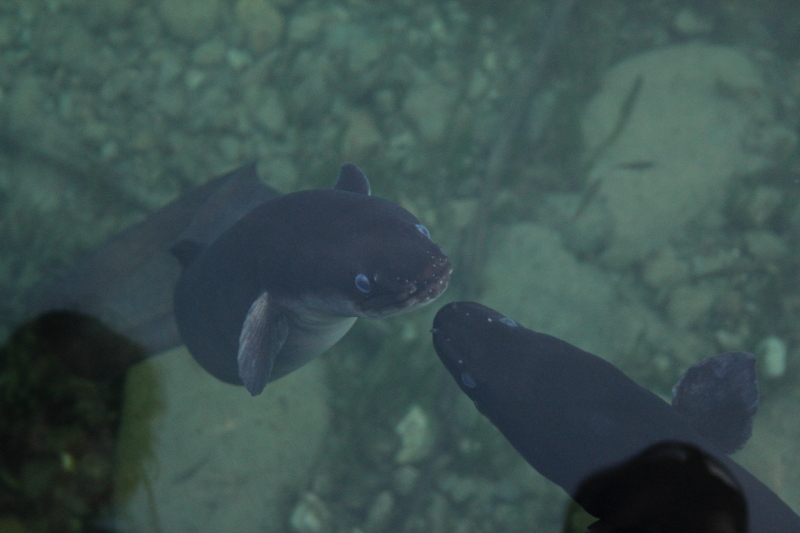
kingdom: Animalia
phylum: Chordata
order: Anguilliformes
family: Anguillidae
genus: Anguilla
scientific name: Anguilla dieffenbachii
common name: New zealand longfin eel
